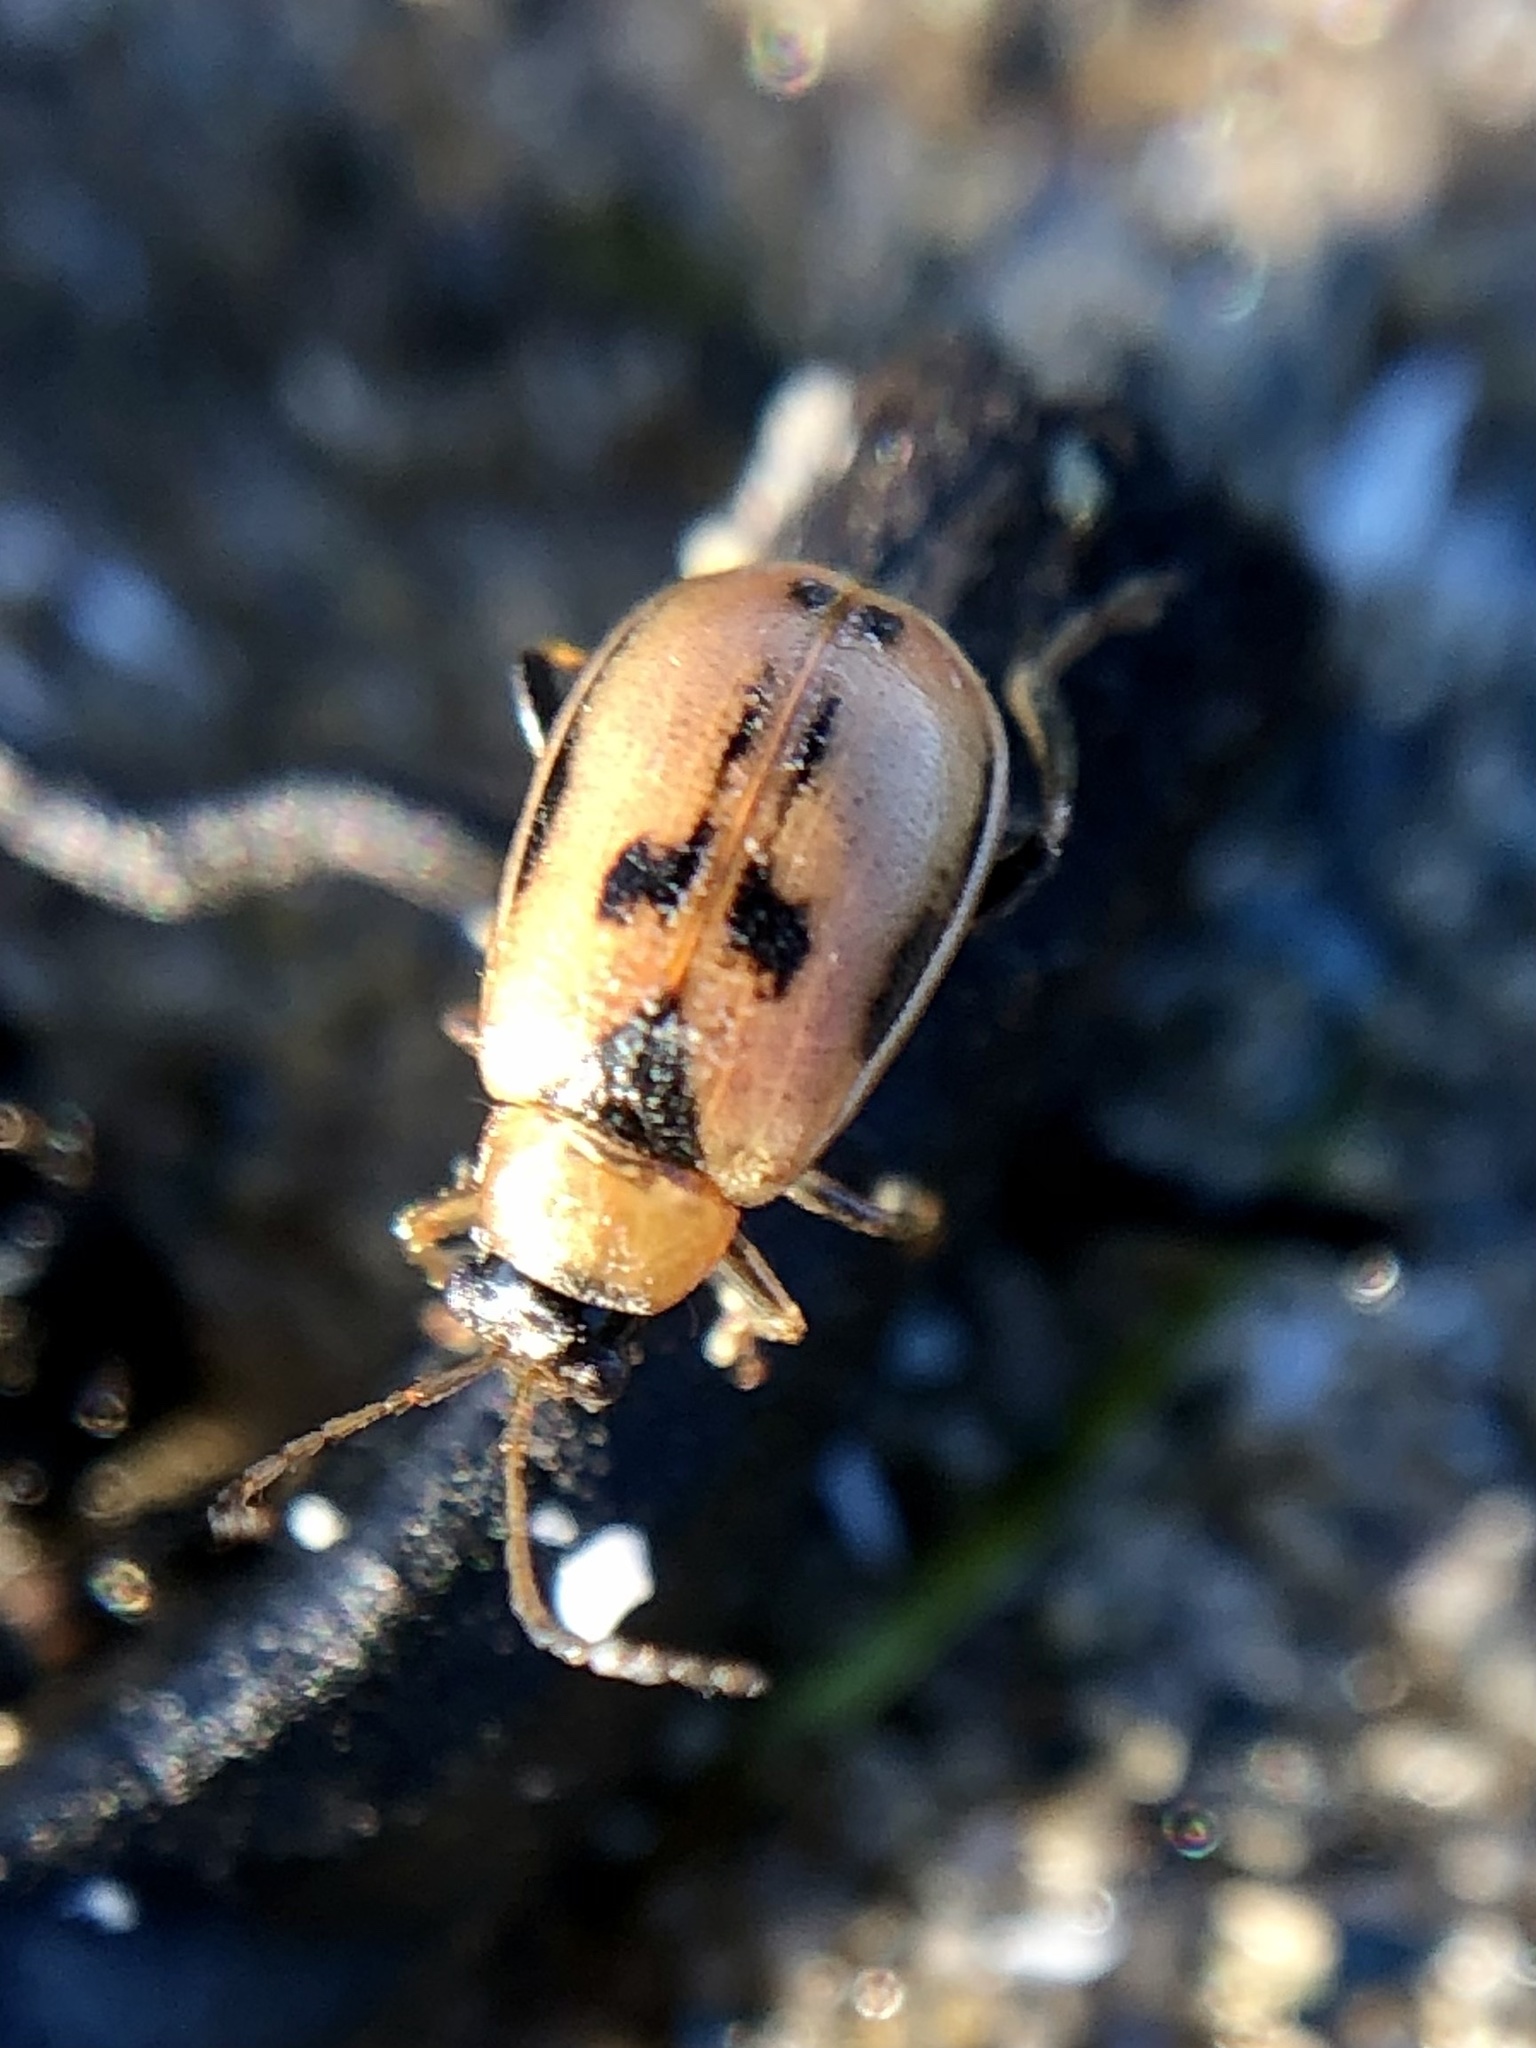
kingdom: Animalia
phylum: Arthropoda
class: Insecta
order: Coleoptera
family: Chrysomelidae
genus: Cerotoma
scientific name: Cerotoma trifurcata
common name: Bean leaf beetle
